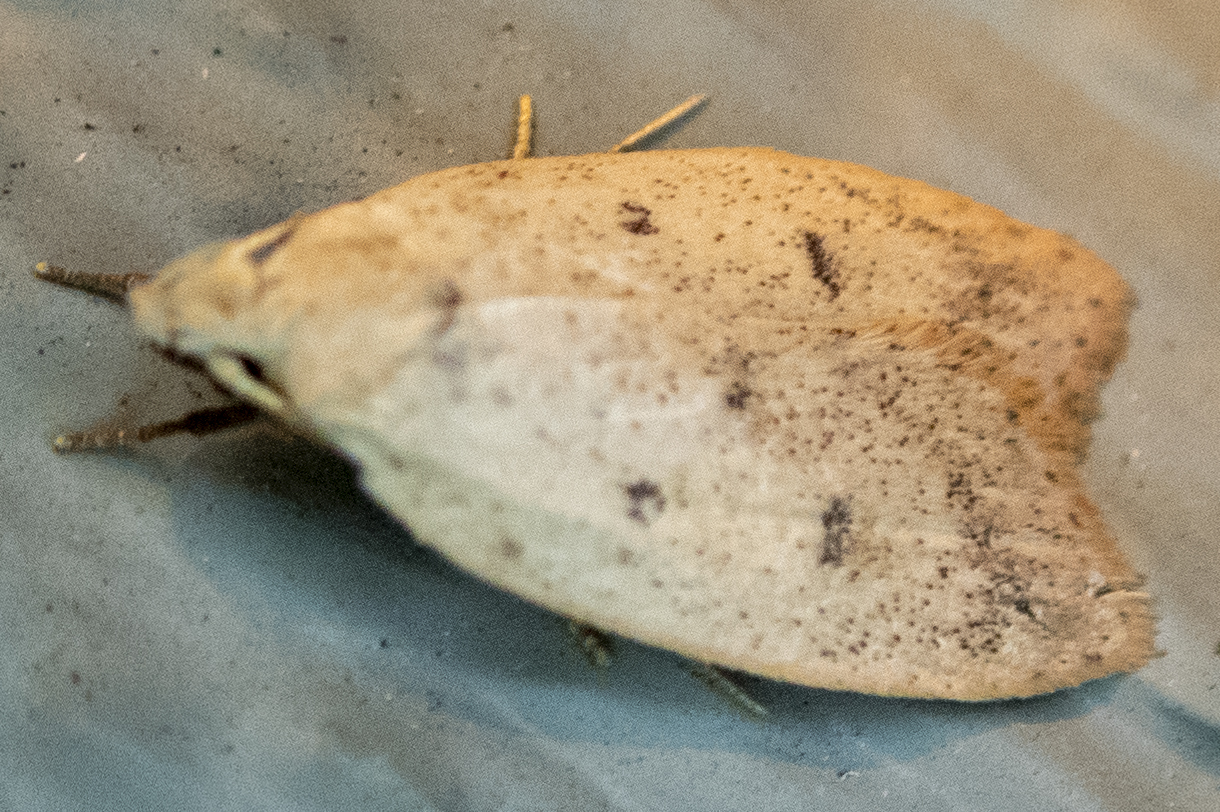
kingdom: Animalia
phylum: Arthropoda
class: Insecta
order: Lepidoptera
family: Peleopodidae
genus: Machimia
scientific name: Machimia tentoriferella
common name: Gold-striped leaftier moth
